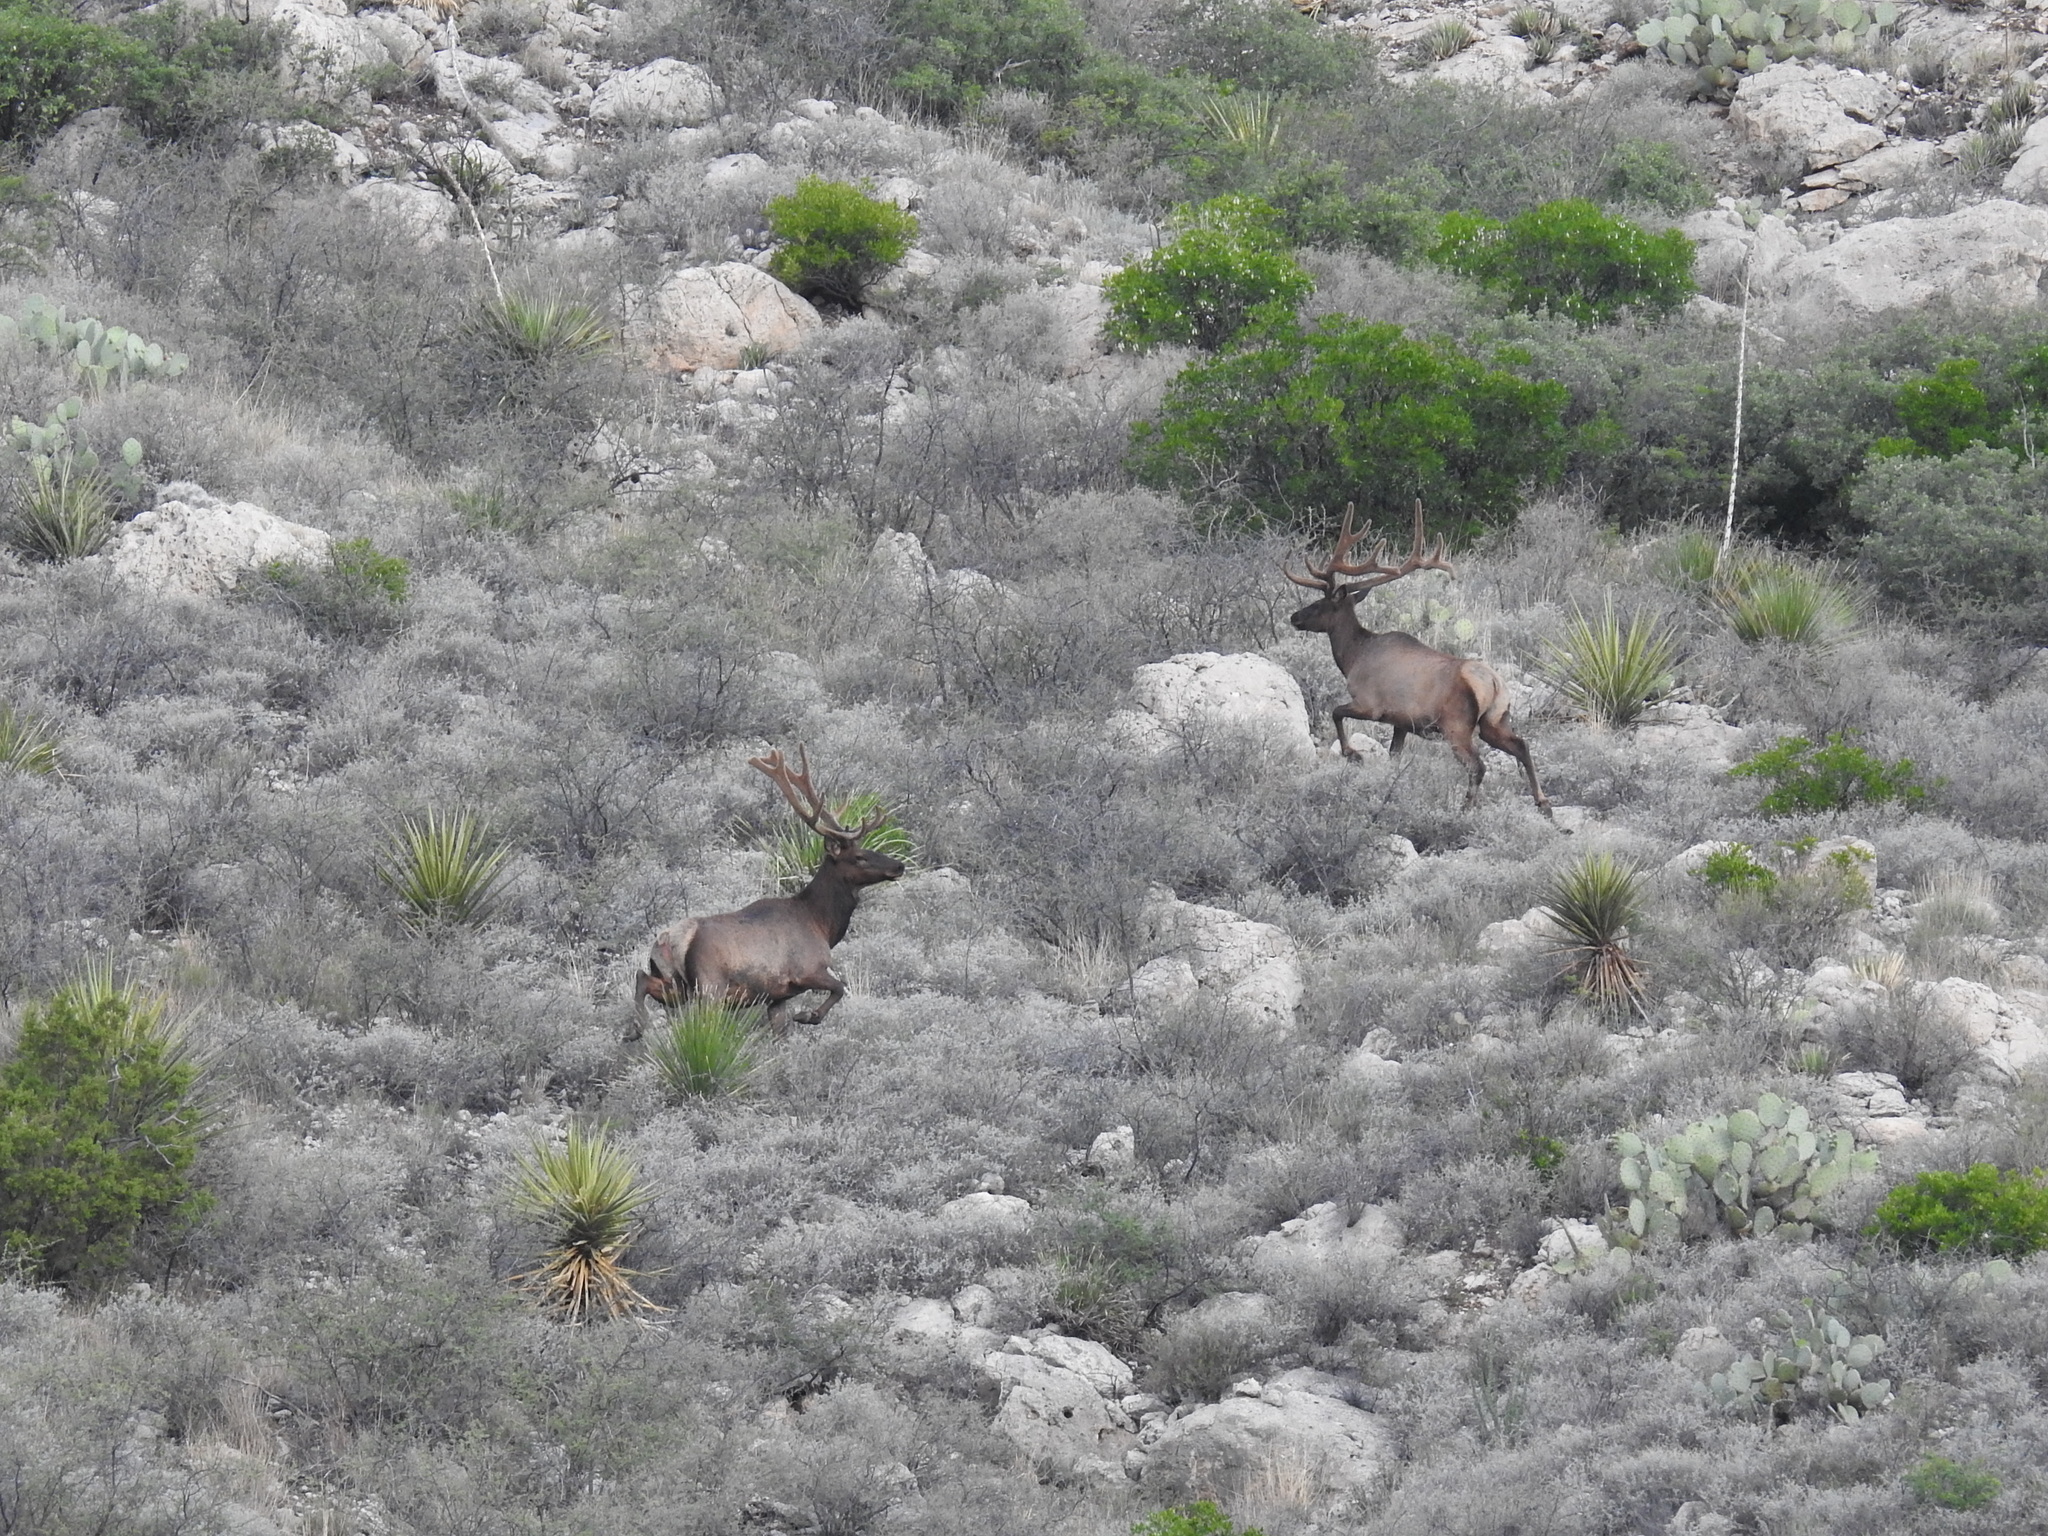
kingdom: Animalia
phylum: Chordata
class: Mammalia
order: Artiodactyla
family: Cervidae
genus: Cervus
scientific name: Cervus elaphus
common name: Red deer
